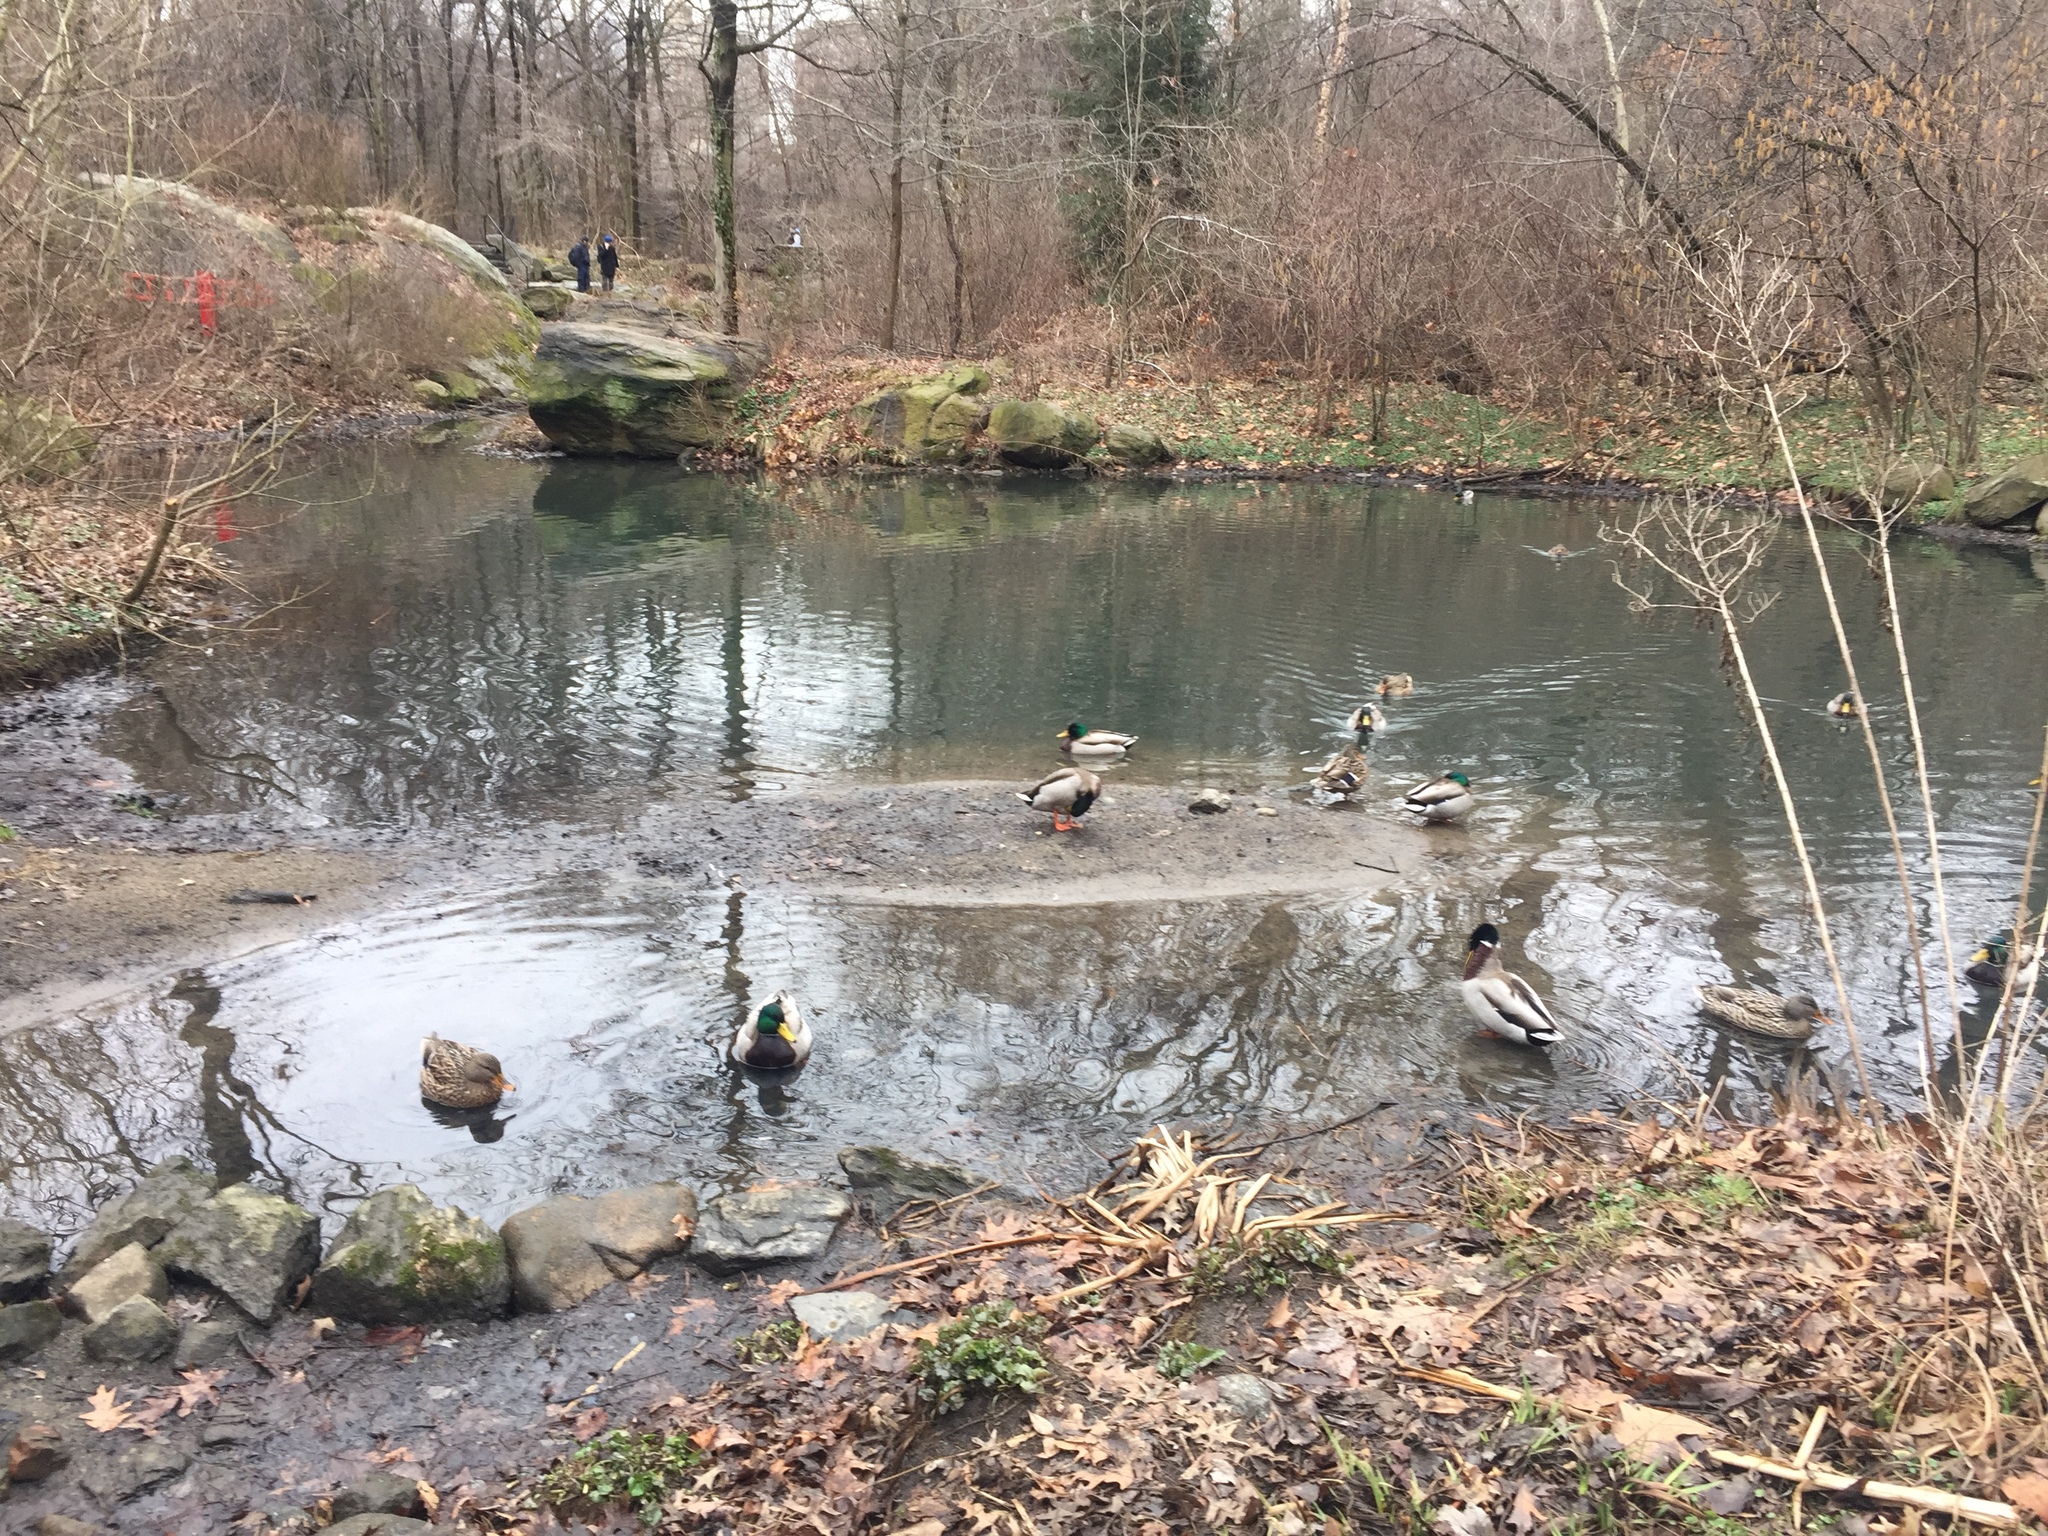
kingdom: Animalia
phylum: Chordata
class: Aves
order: Anseriformes
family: Anatidae
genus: Anas
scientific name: Anas platyrhynchos
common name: Mallard
